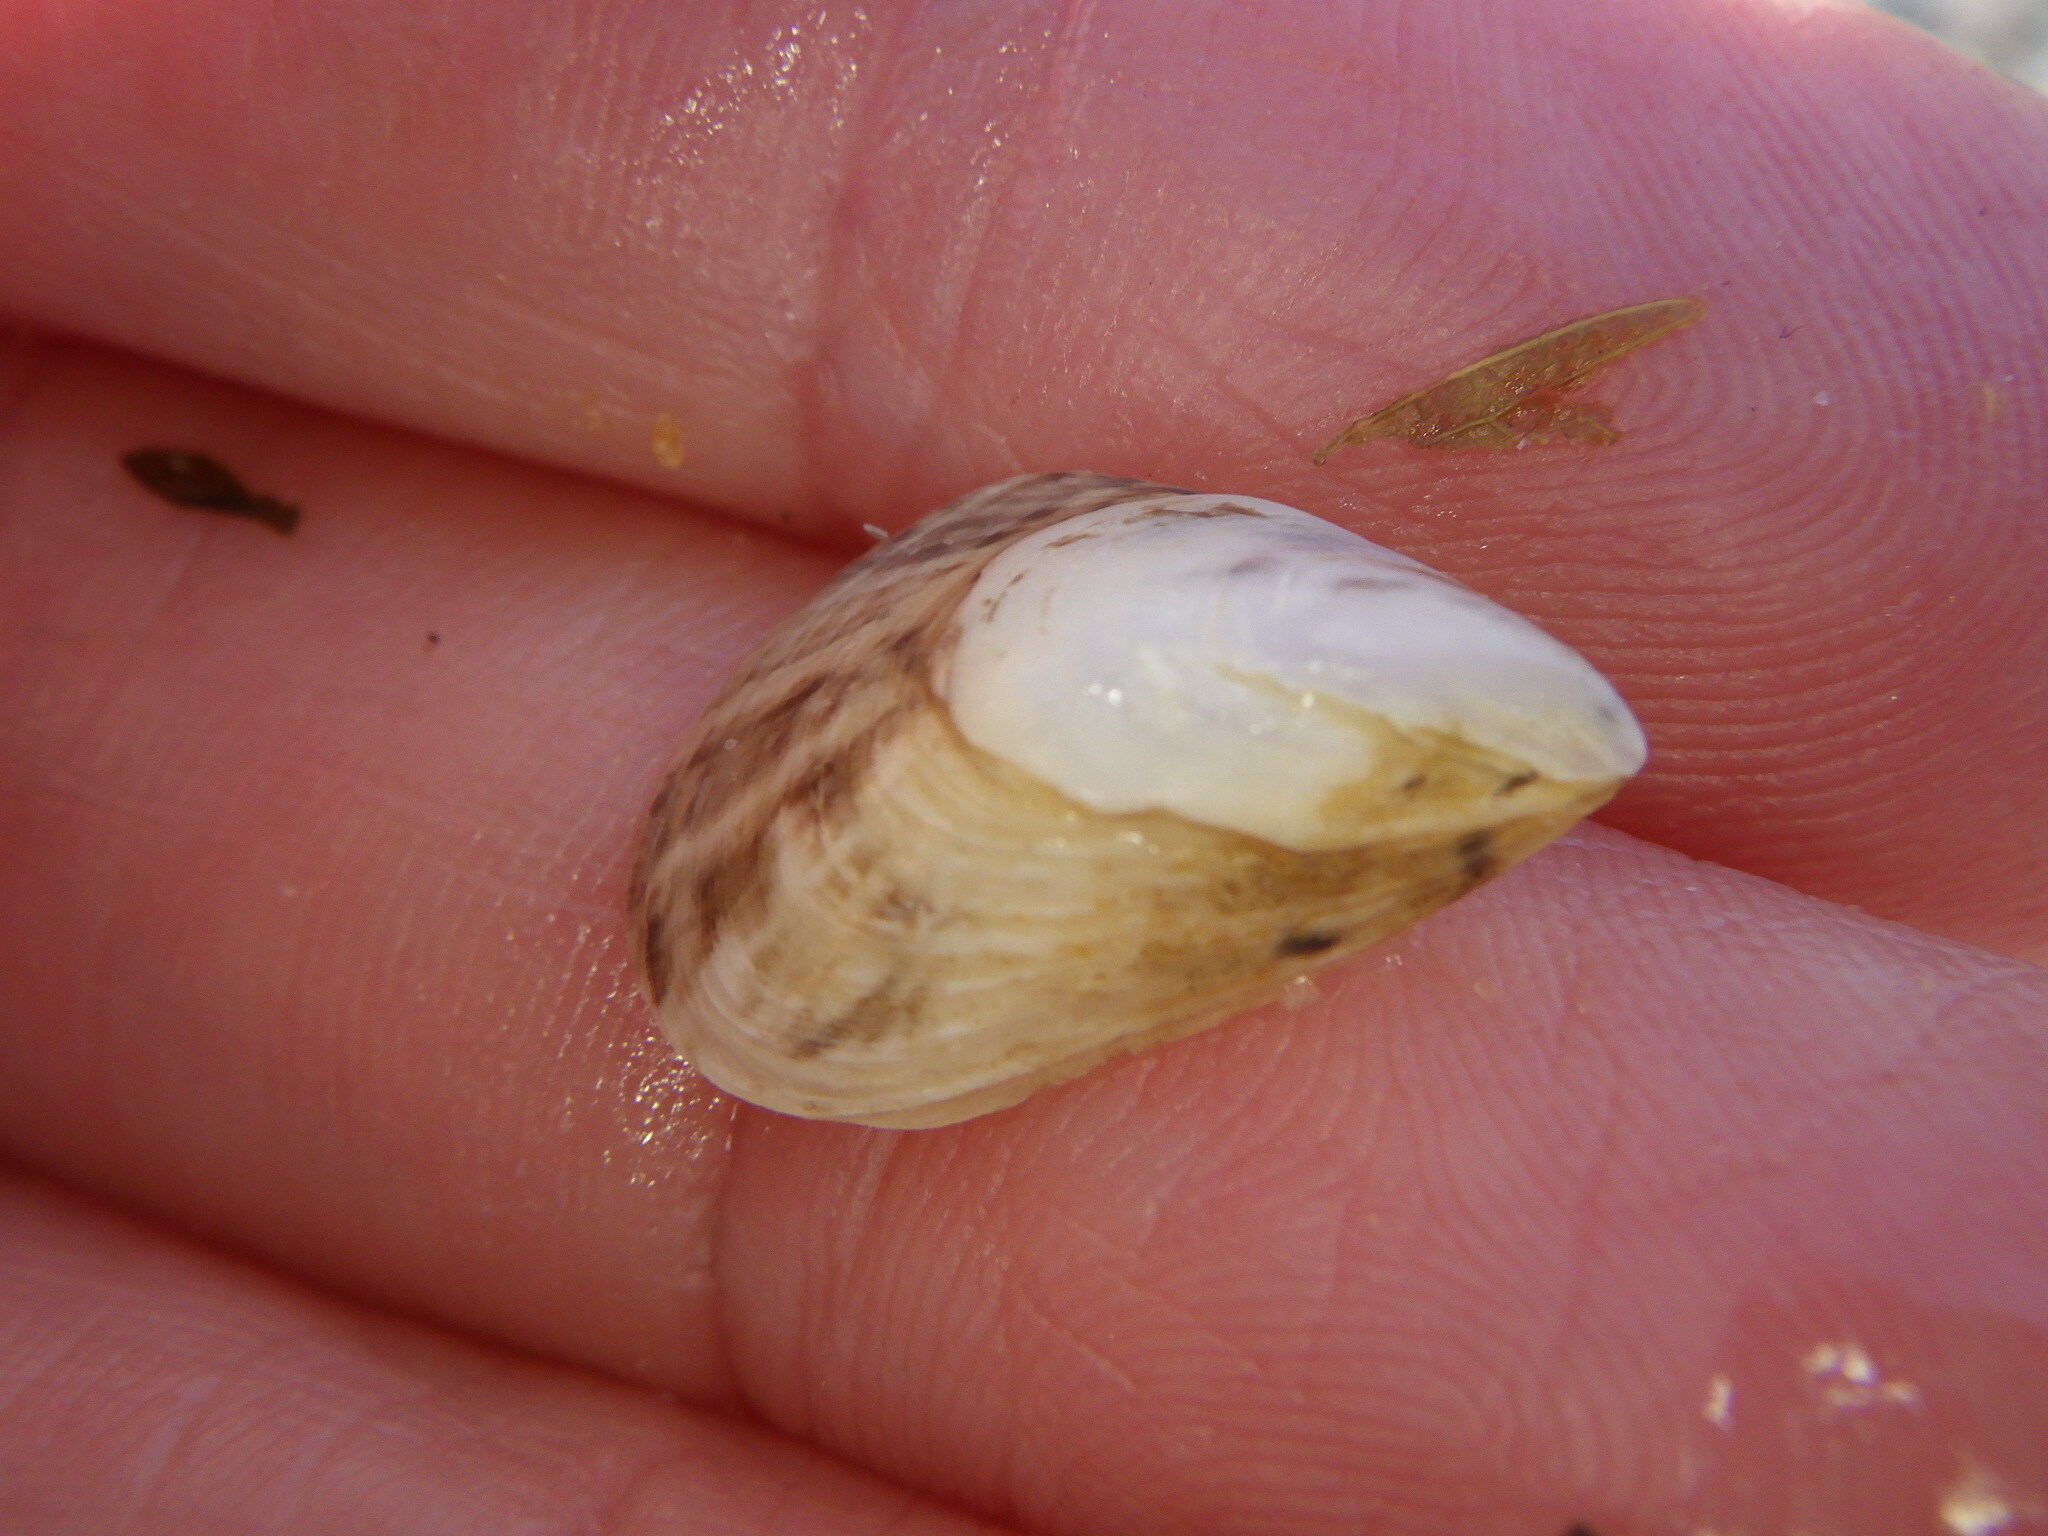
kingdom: Animalia
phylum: Mollusca
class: Bivalvia
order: Myida
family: Dreissenidae
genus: Dreissena
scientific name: Dreissena bugensis
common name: Quagga mussel
